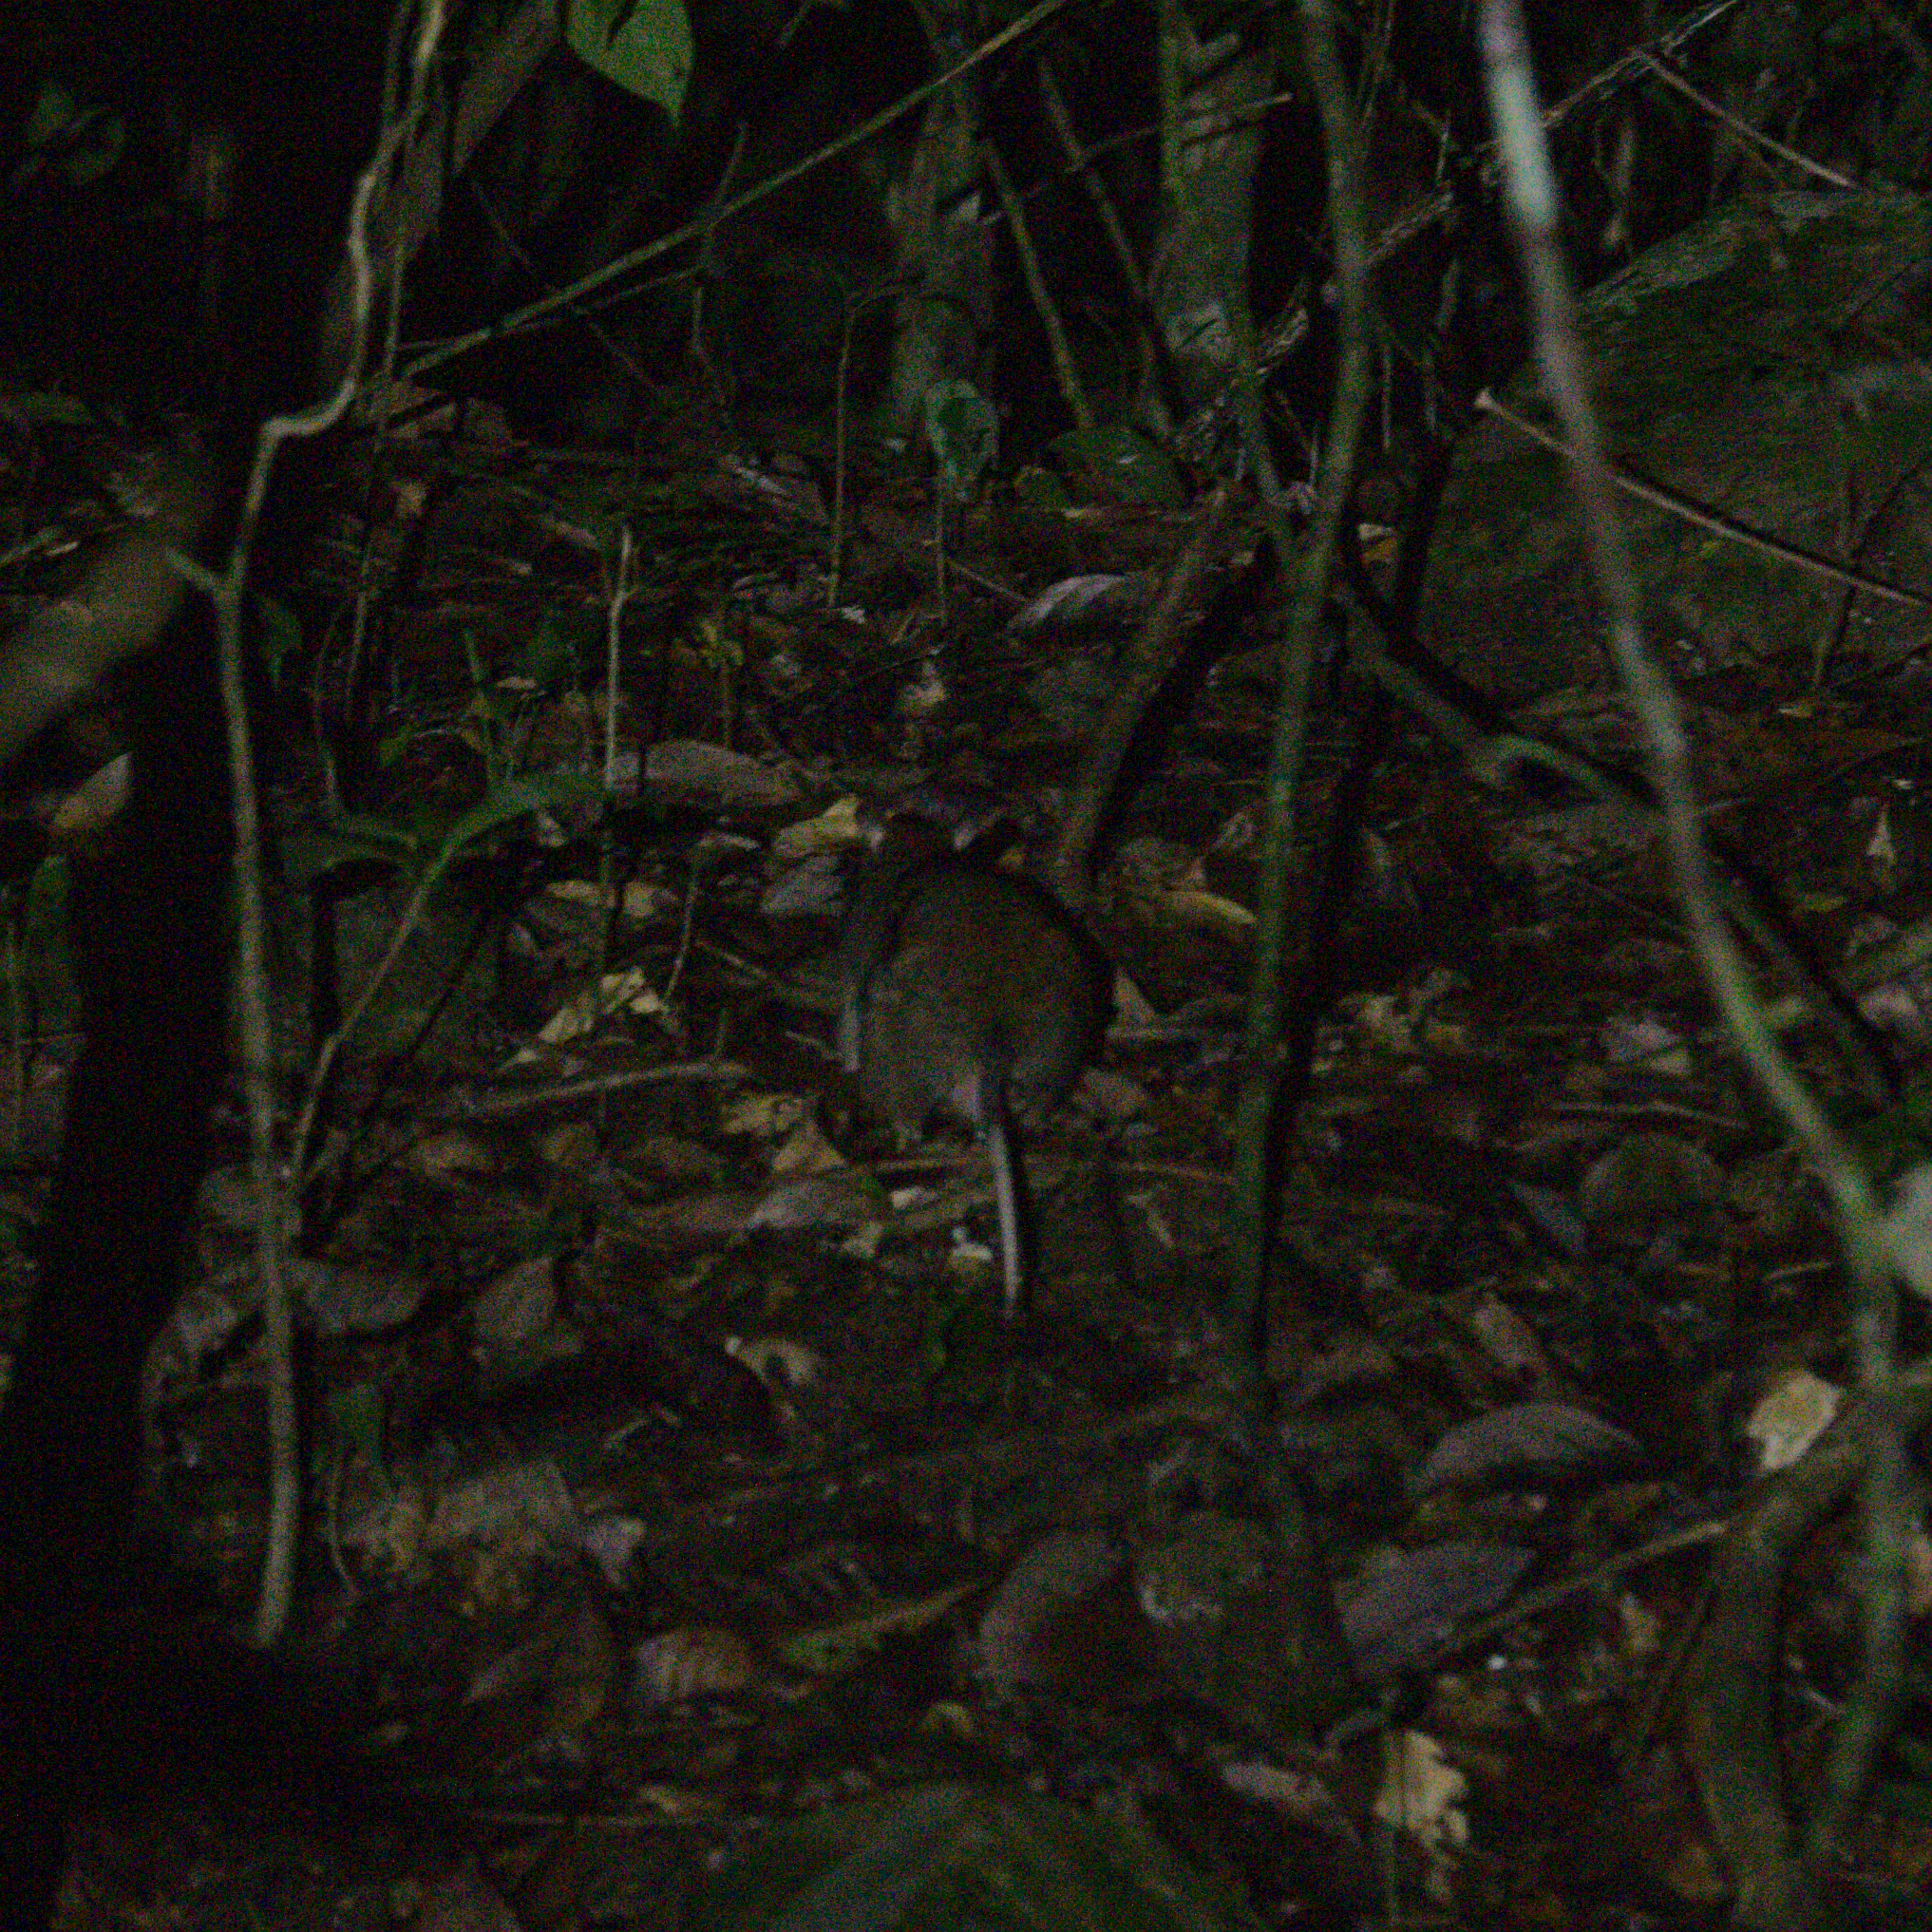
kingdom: Animalia
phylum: Chordata
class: Mammalia
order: Rodentia
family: Muridae
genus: Uromys
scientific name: Uromys caudimaculatus
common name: Giant white-tailed uromys
